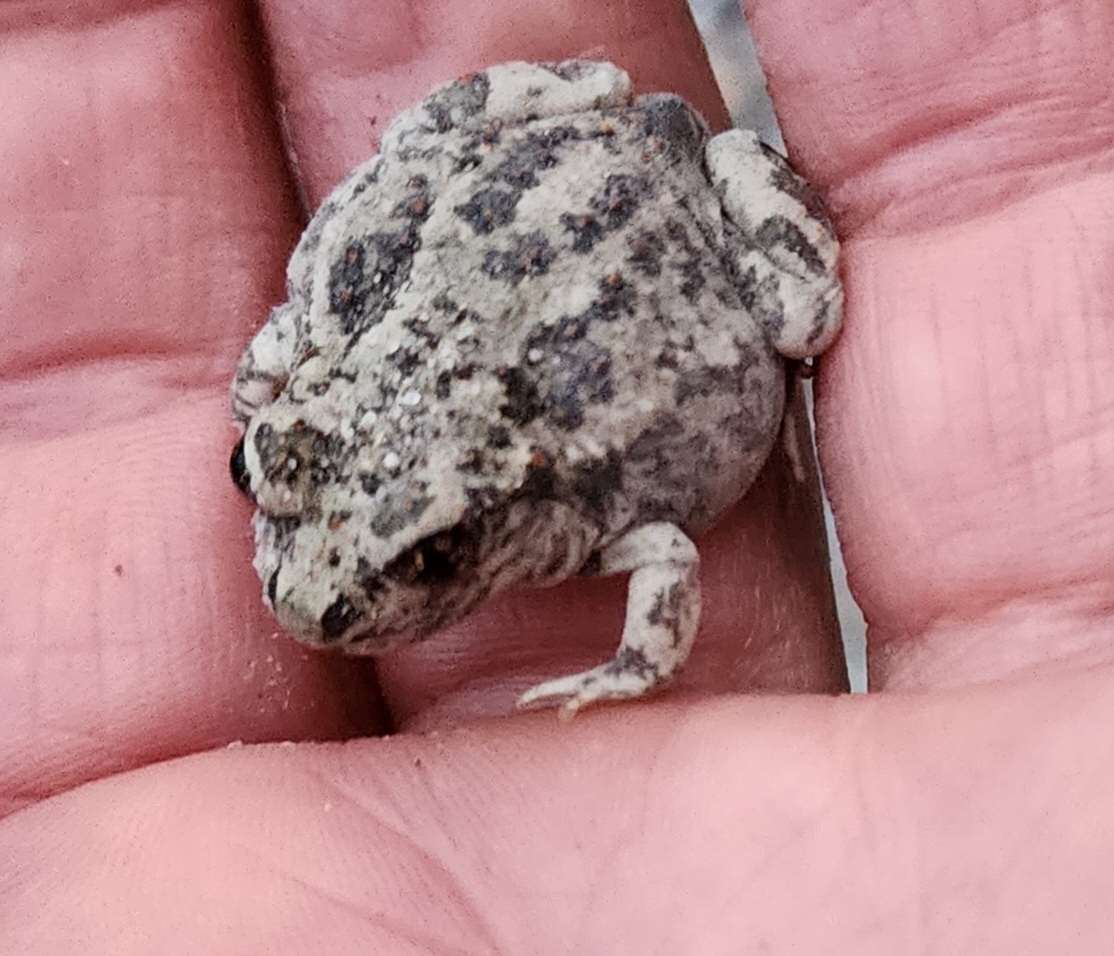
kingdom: Animalia
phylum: Chordata
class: Amphibia
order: Anura
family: Scaphiopodidae
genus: Spea
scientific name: Spea intermontana
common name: Great basin spadefoot
